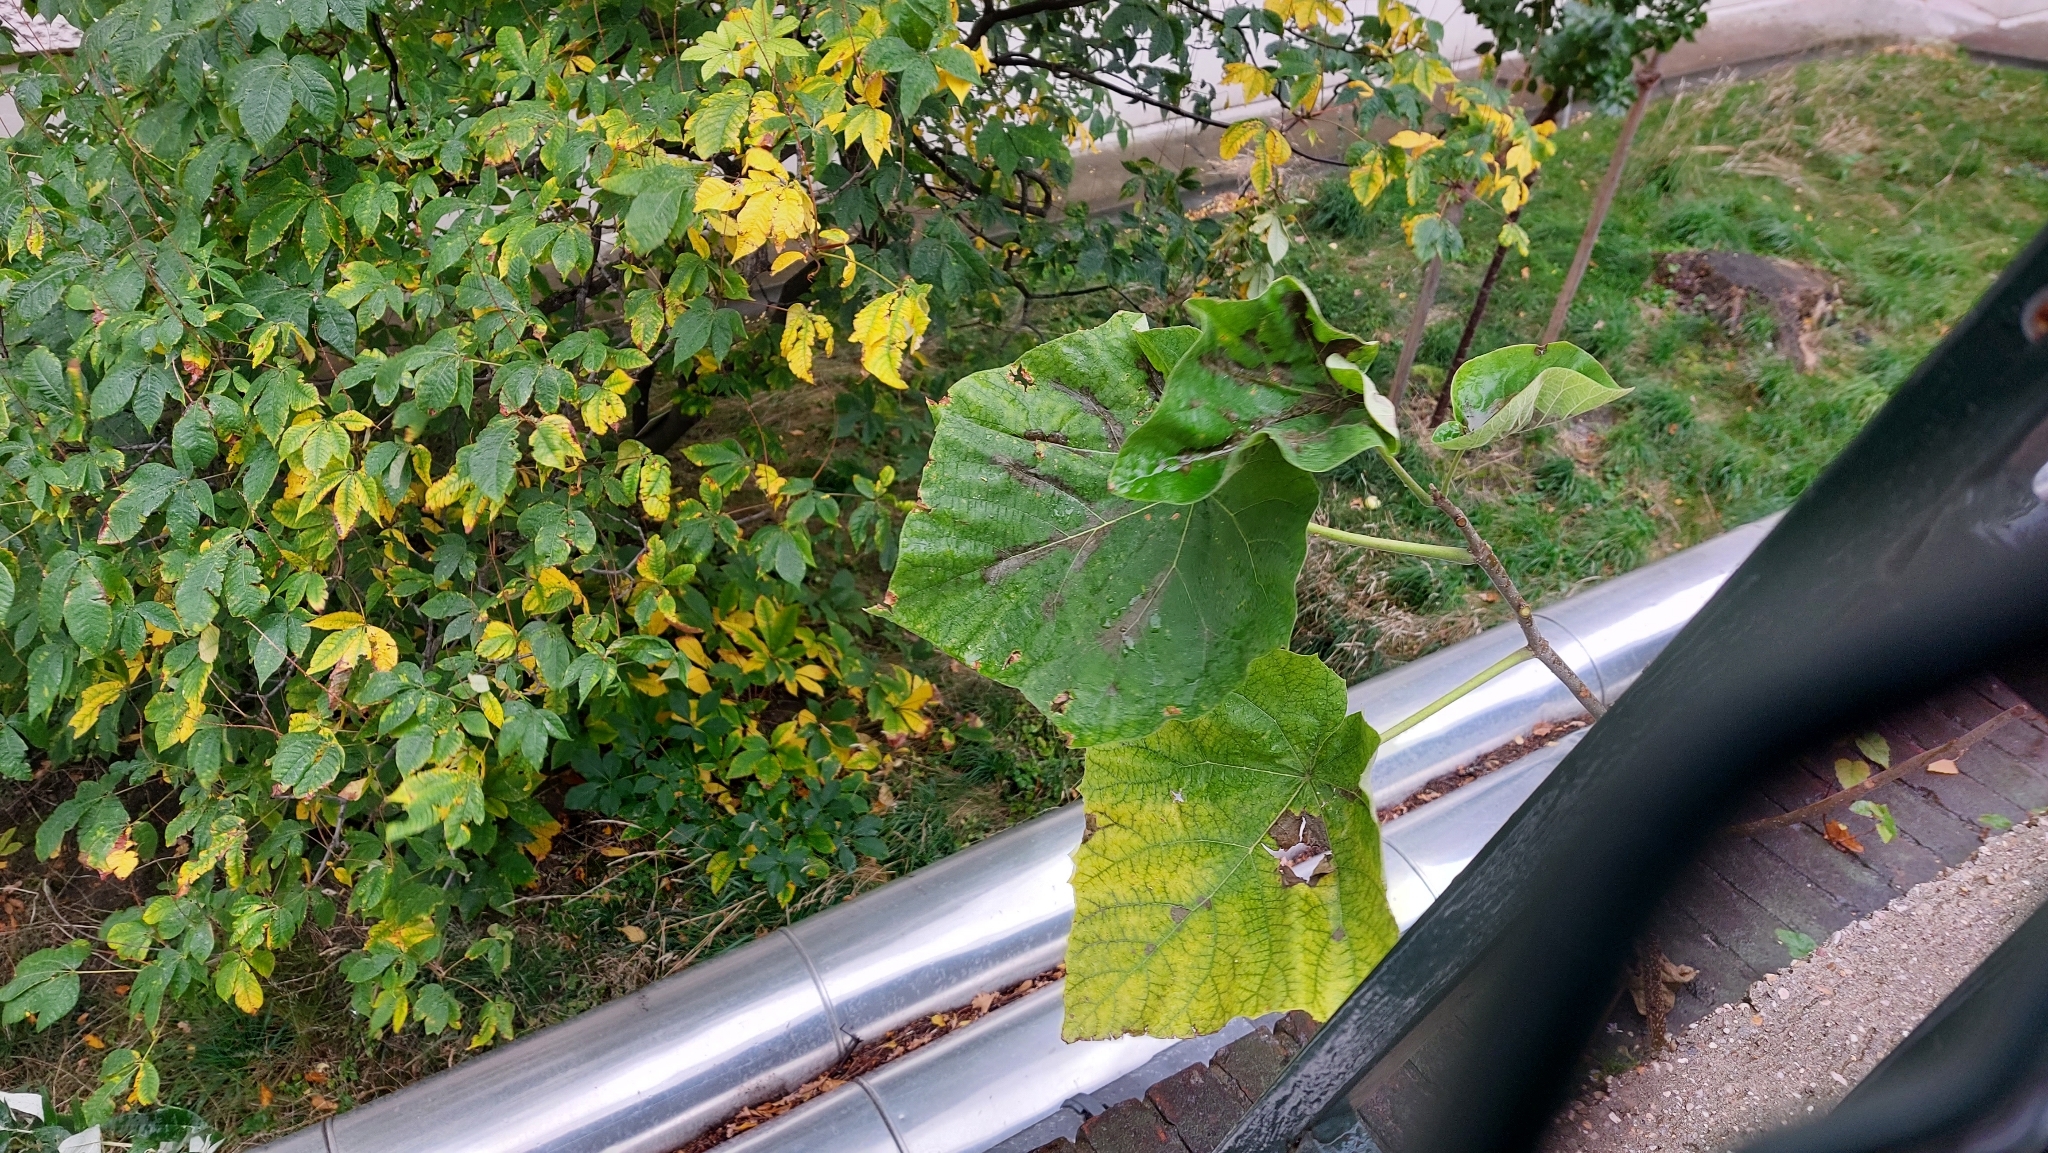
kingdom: Plantae
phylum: Tracheophyta
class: Magnoliopsida
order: Lamiales
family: Paulowniaceae
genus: Paulownia
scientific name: Paulownia tomentosa
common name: Foxglove-tree
